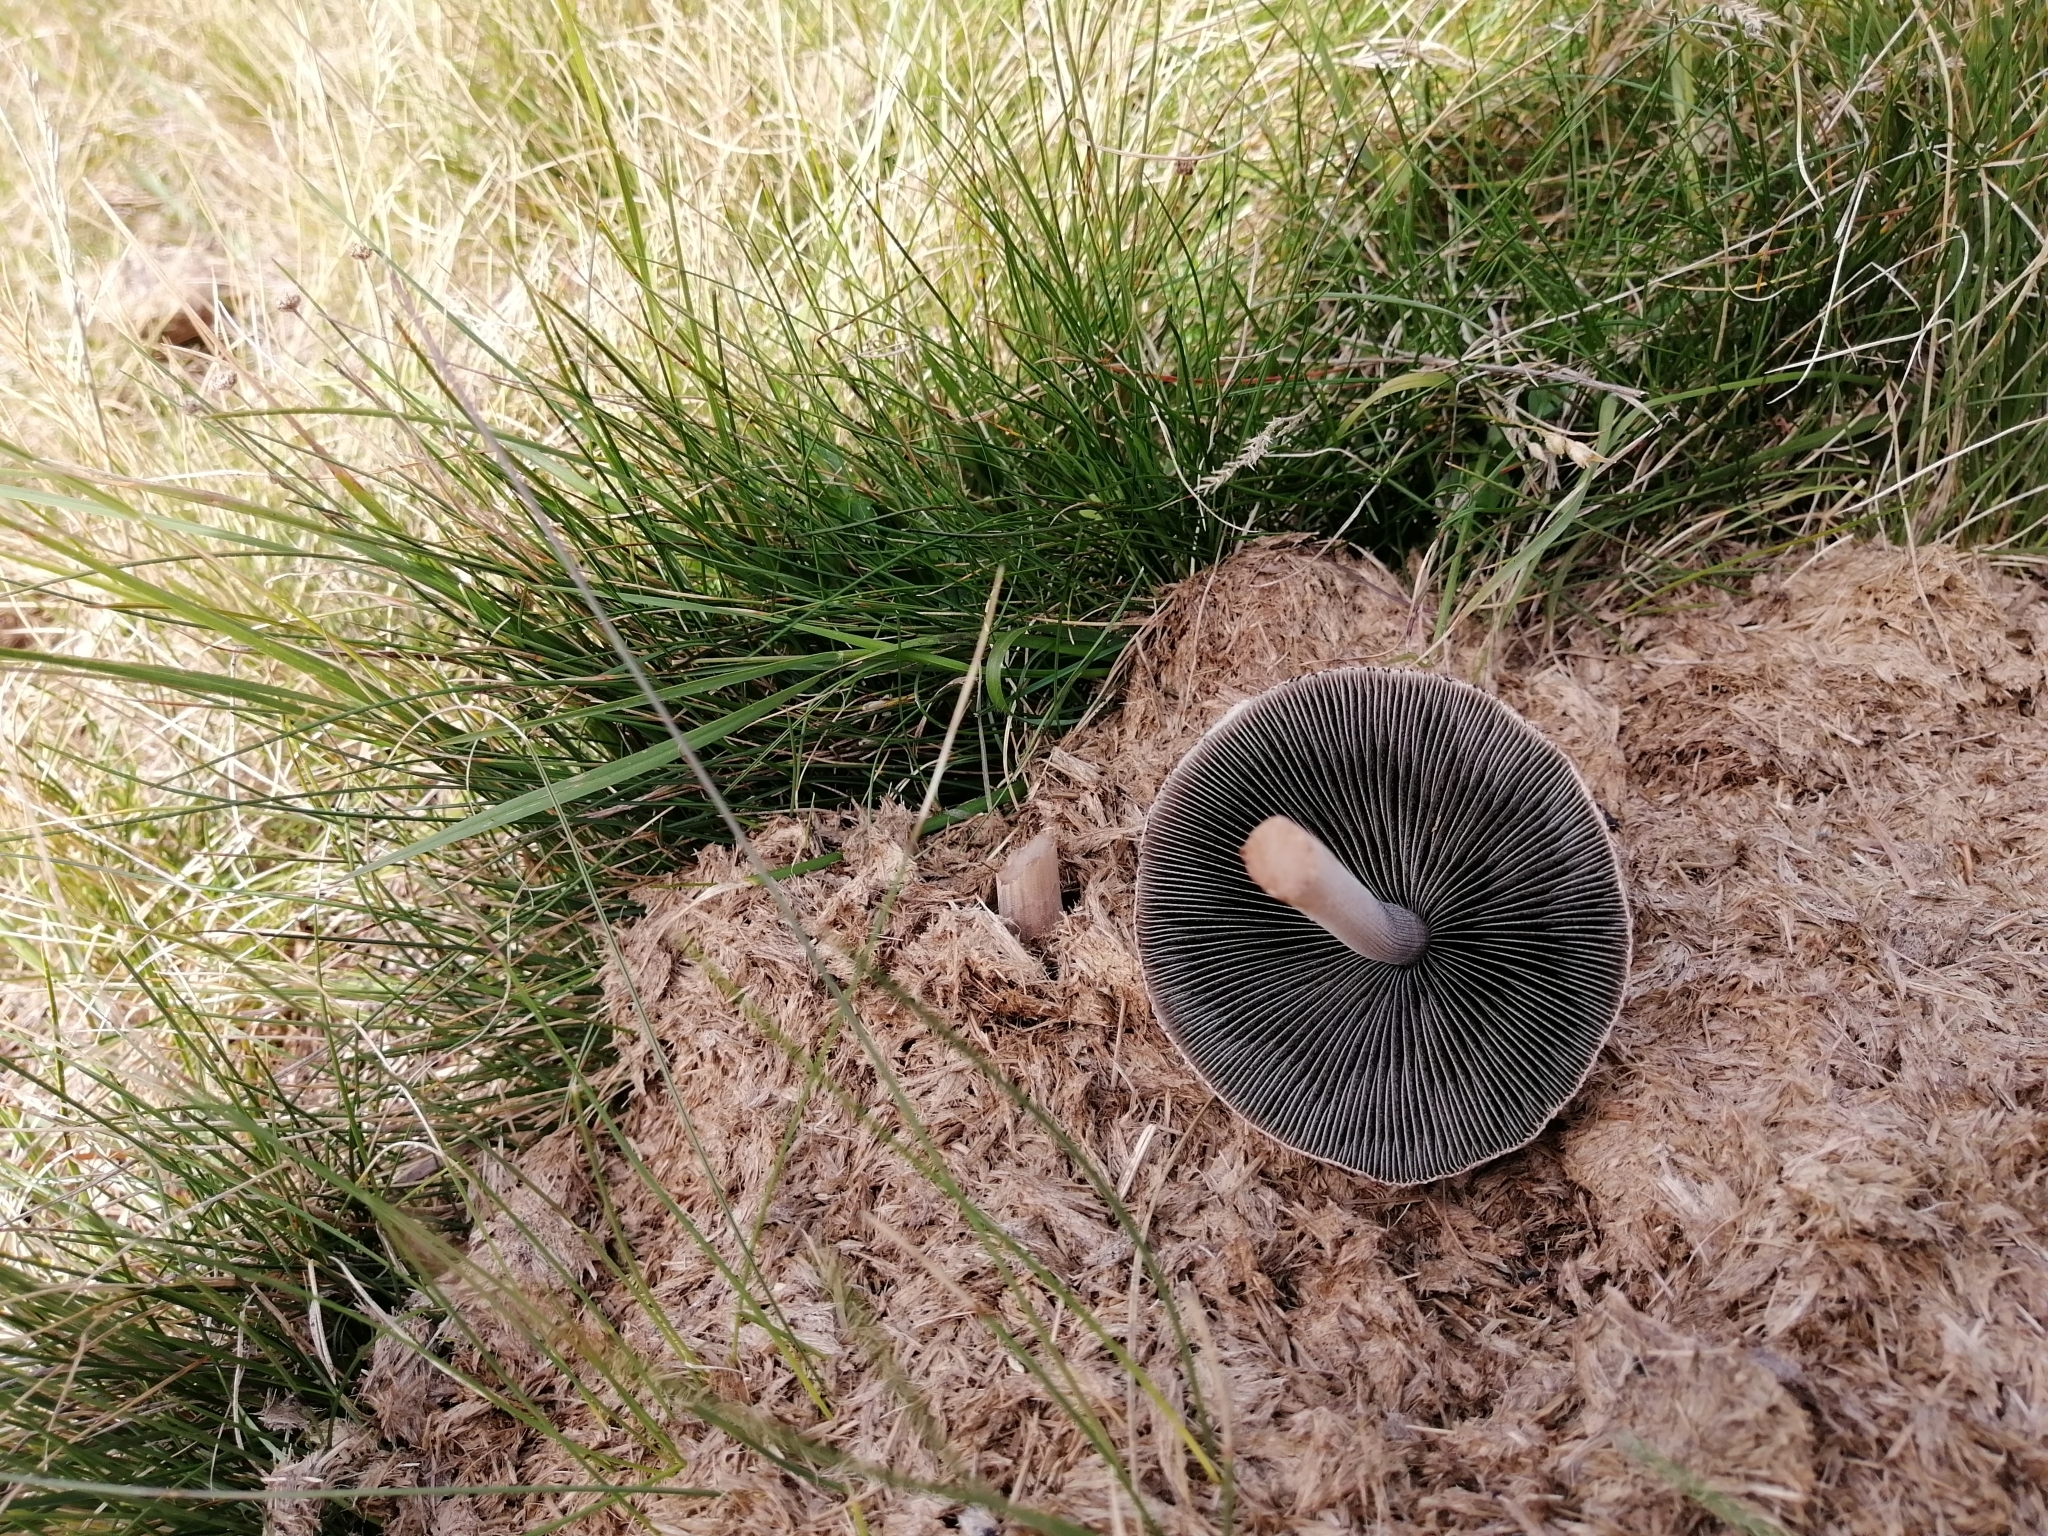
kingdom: Fungi
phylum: Basidiomycota
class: Agaricomycetes
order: Agaricales
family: Bolbitiaceae
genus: Panaeolus
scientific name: Panaeolus antillarum
